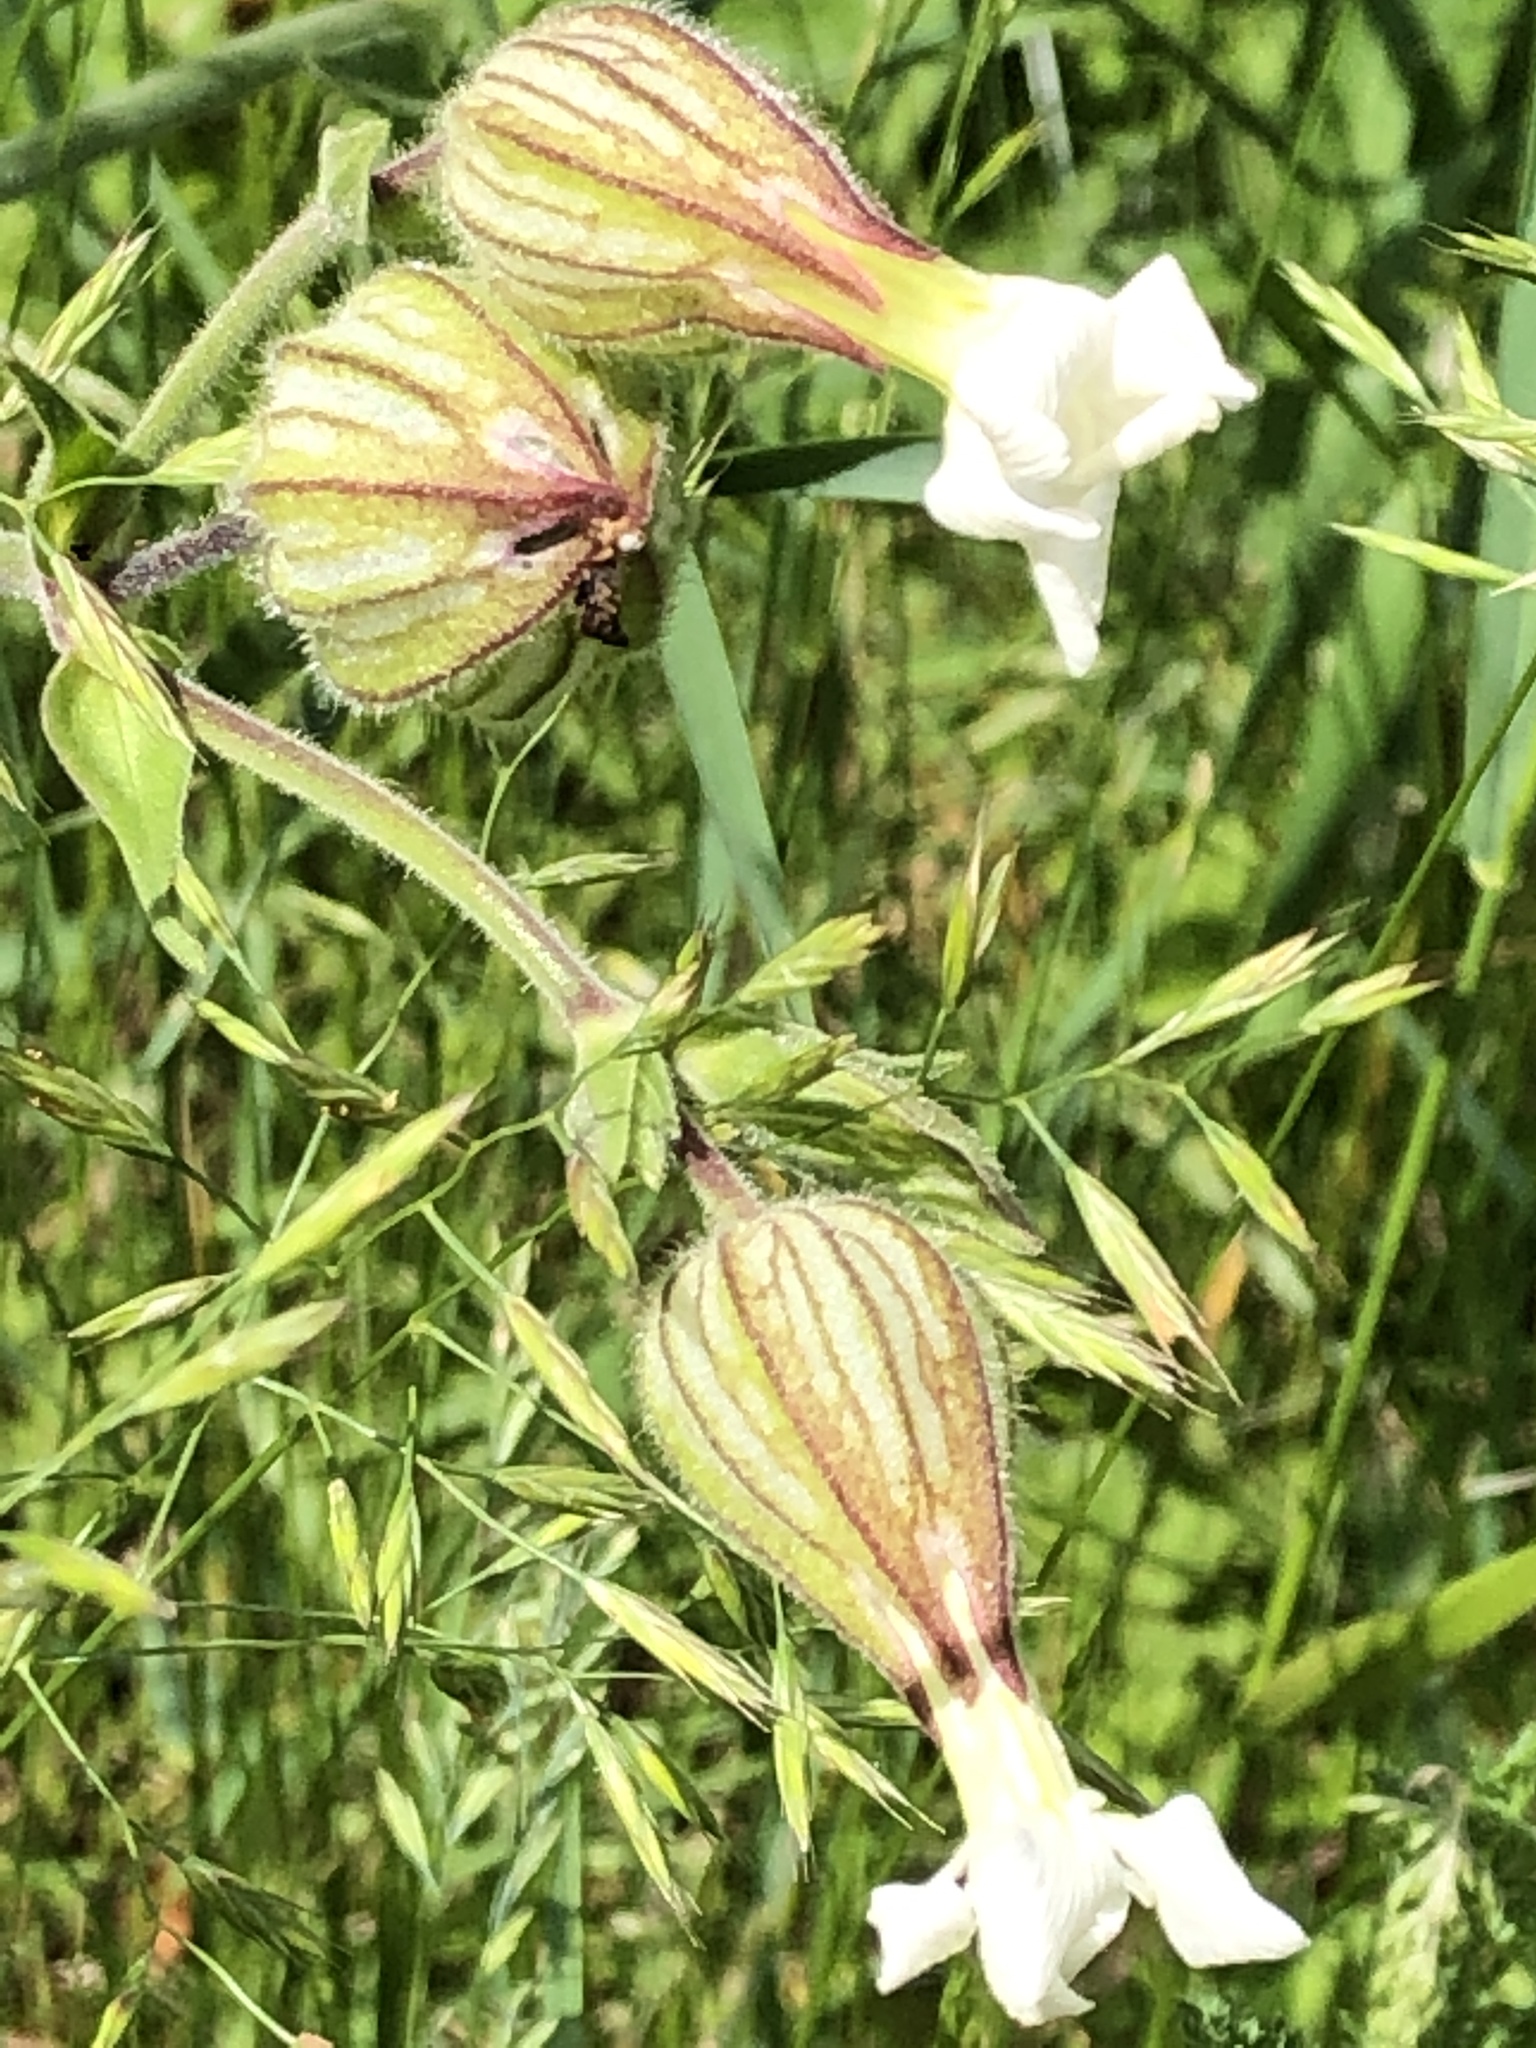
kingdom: Plantae
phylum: Tracheophyta
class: Magnoliopsida
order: Caryophyllales
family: Caryophyllaceae
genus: Silene
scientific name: Silene latifolia
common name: White campion
